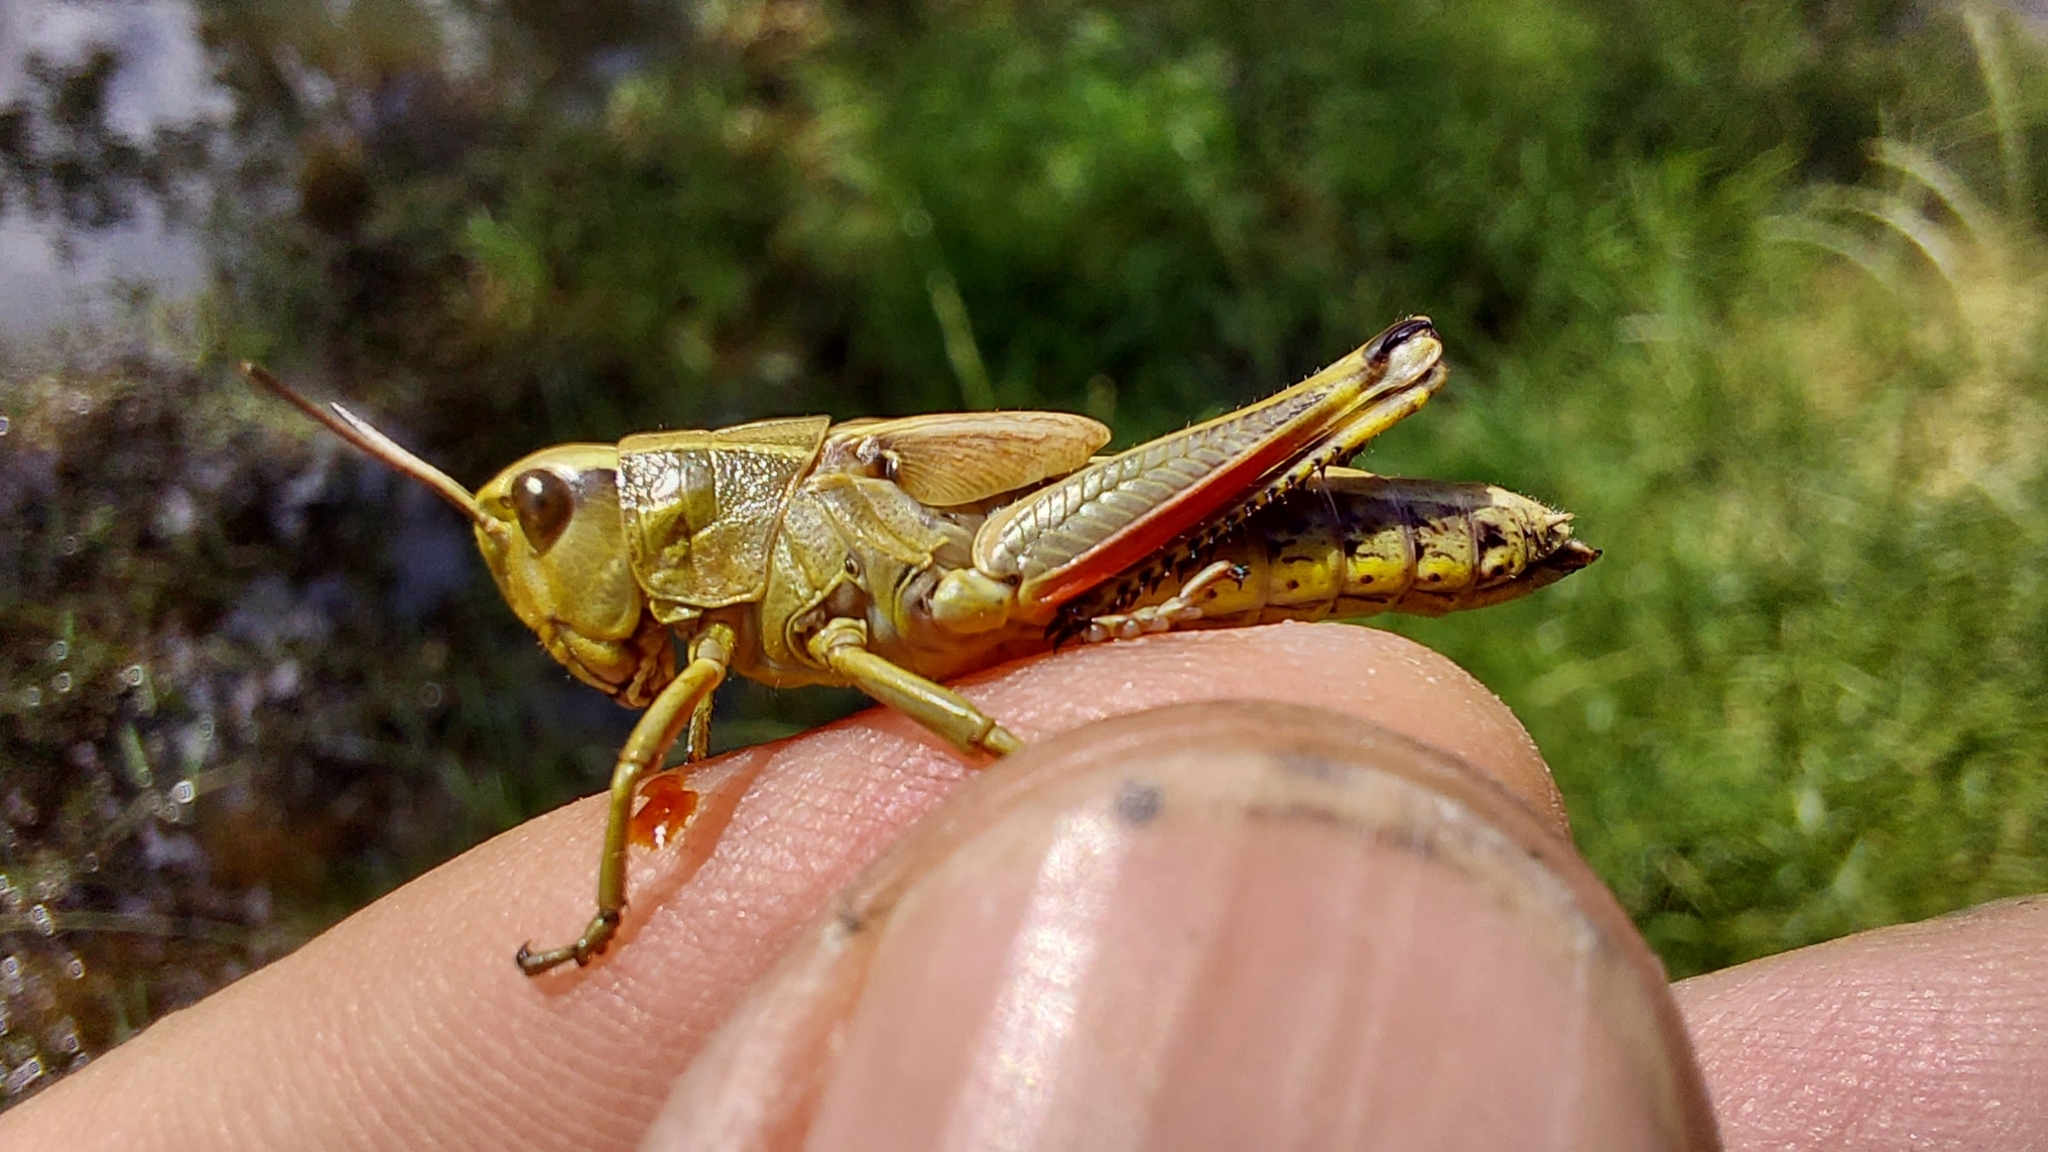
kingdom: Animalia
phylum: Arthropoda
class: Insecta
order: Orthoptera
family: Acrididae
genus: Stethophyma
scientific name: Stethophyma grossum
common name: Large marsh grasshopper
